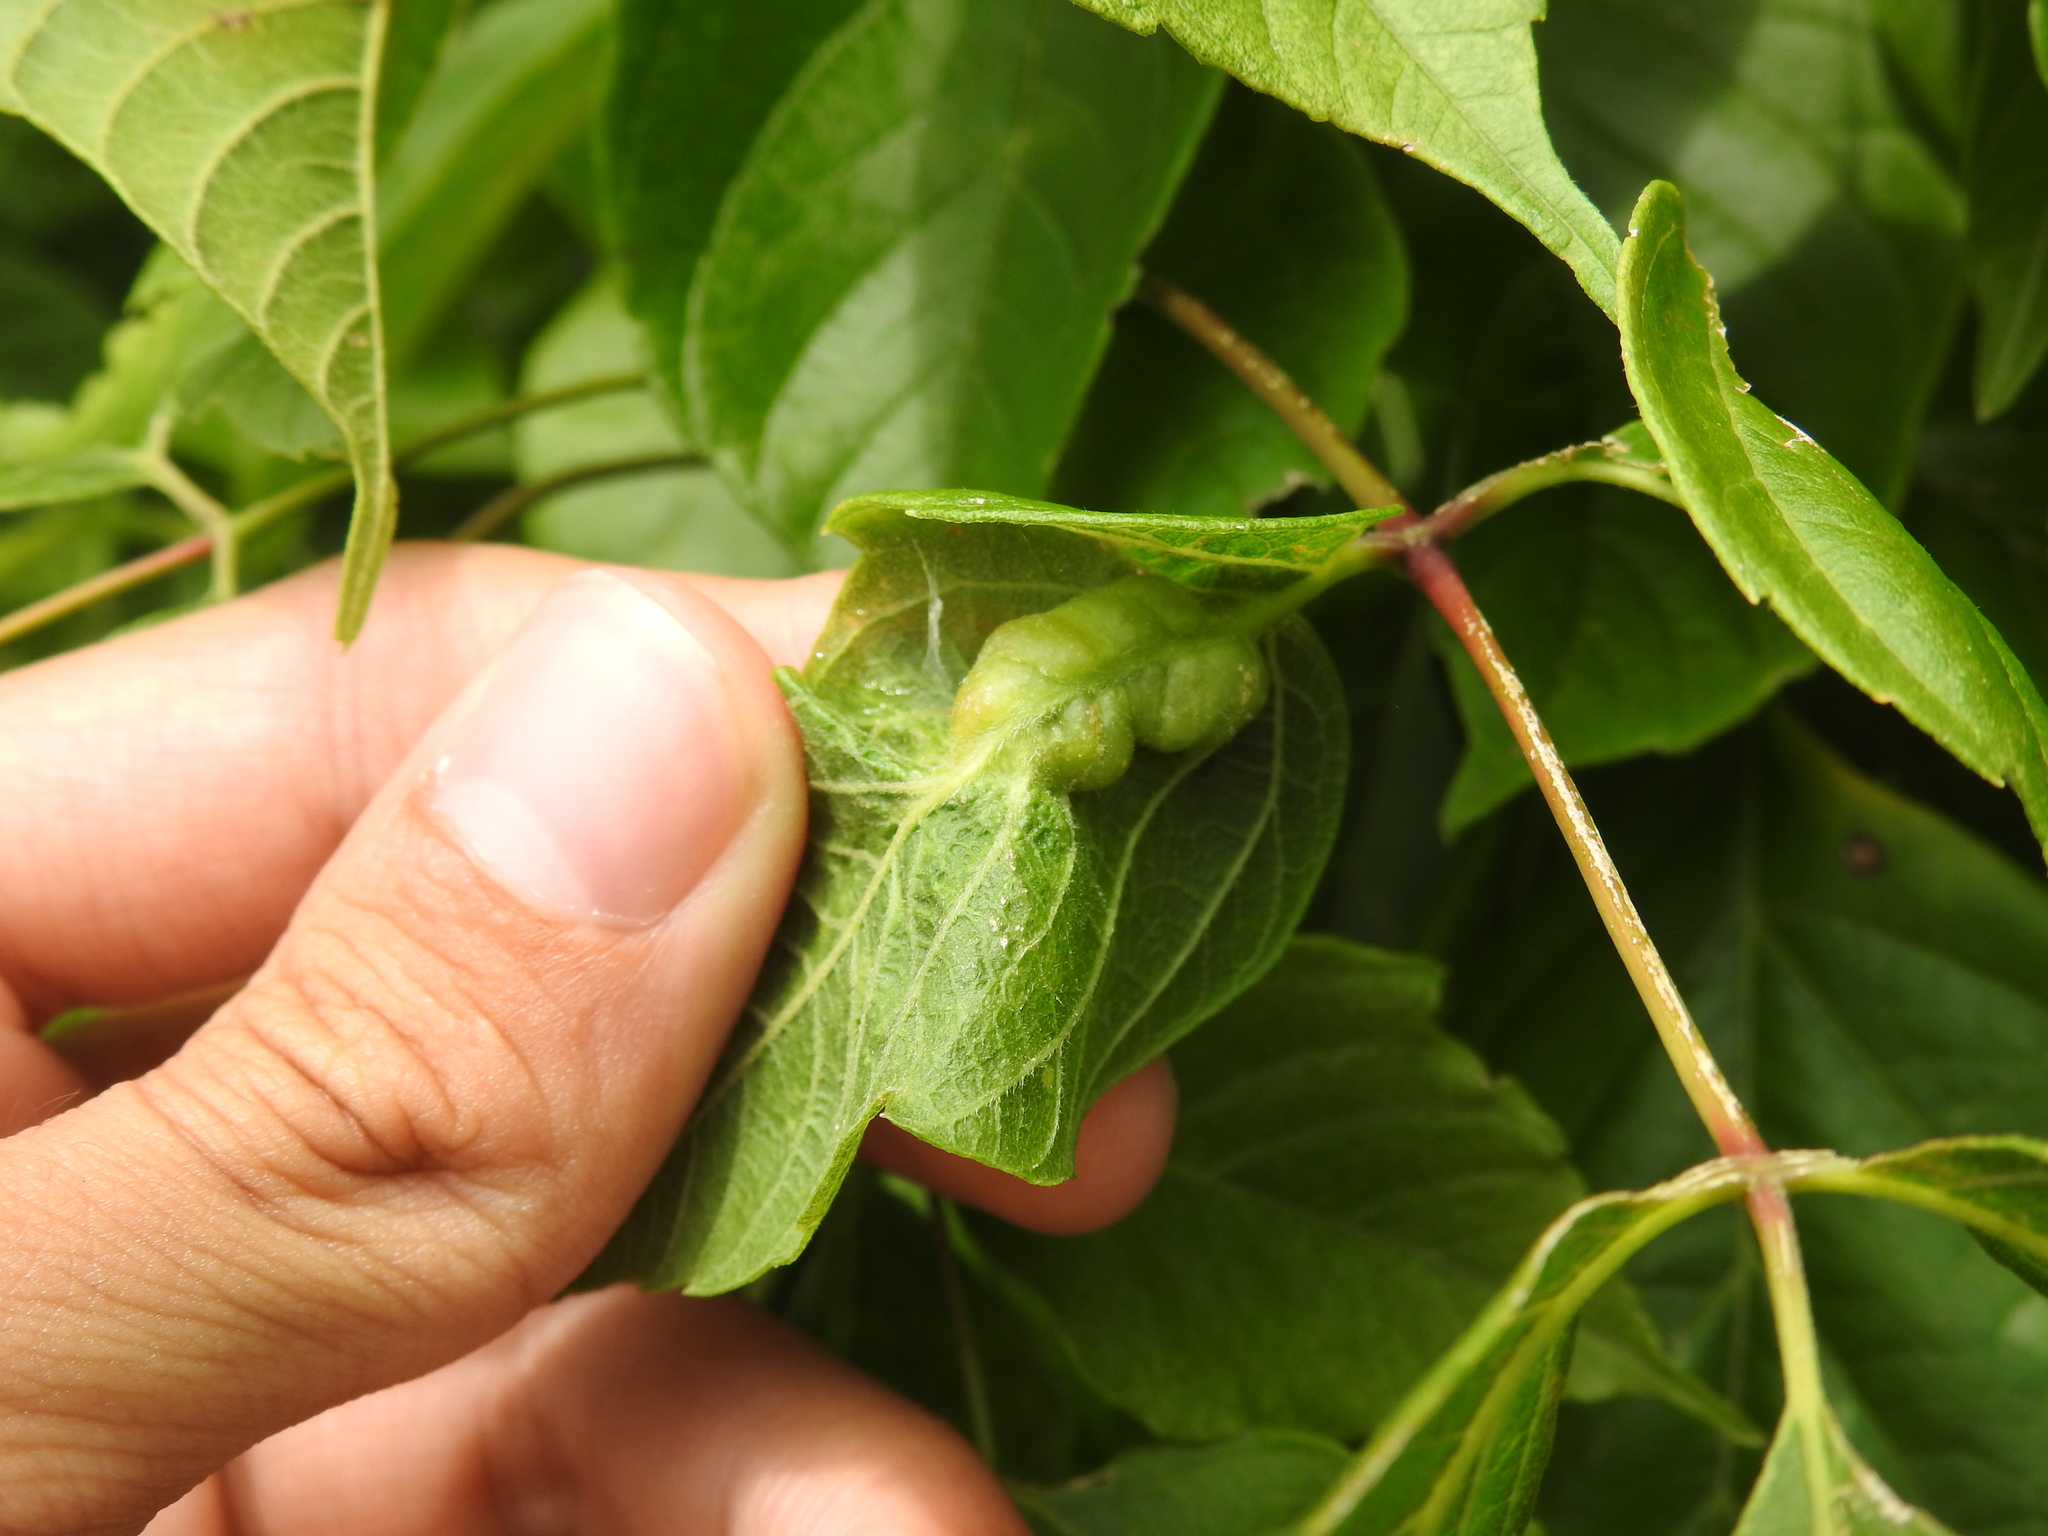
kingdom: Animalia
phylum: Arthropoda
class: Insecta
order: Diptera
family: Cecidomyiidae
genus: Contarinia
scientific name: Contarinia negundinis
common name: Boxelder budgall midge
